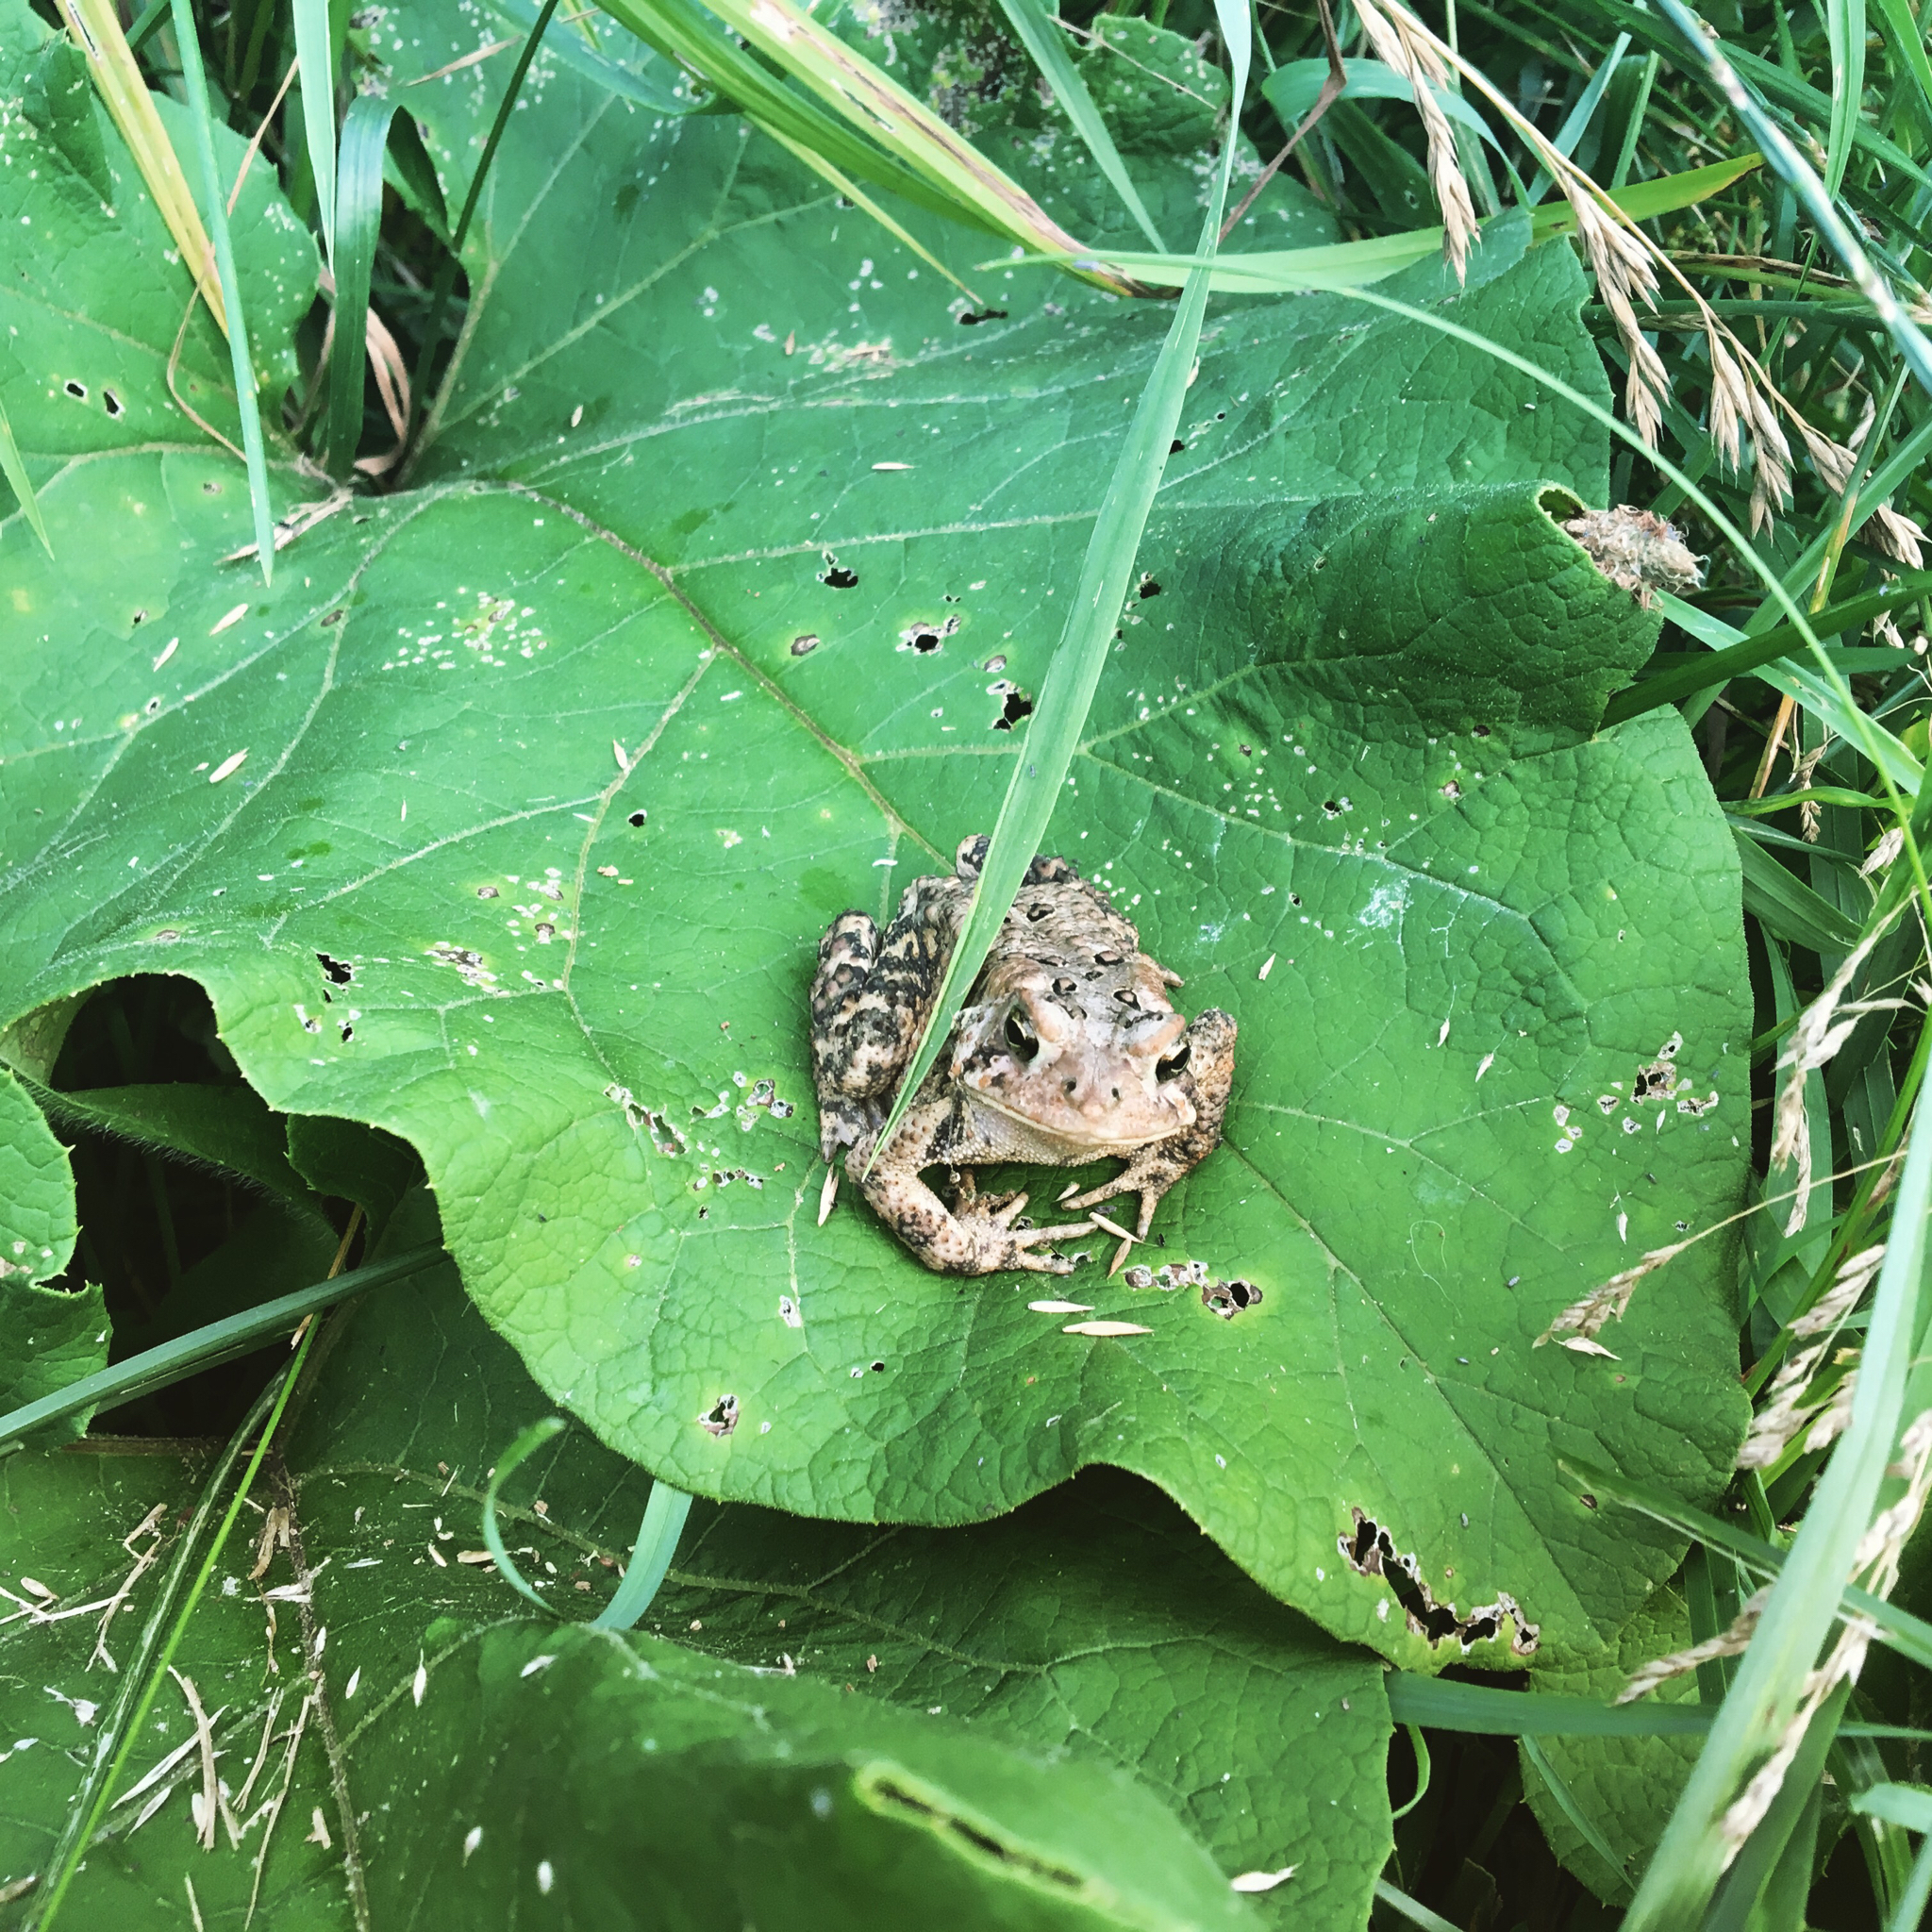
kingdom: Animalia
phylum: Chordata
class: Amphibia
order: Anura
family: Bufonidae
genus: Anaxyrus
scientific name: Anaxyrus americanus
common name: American toad
